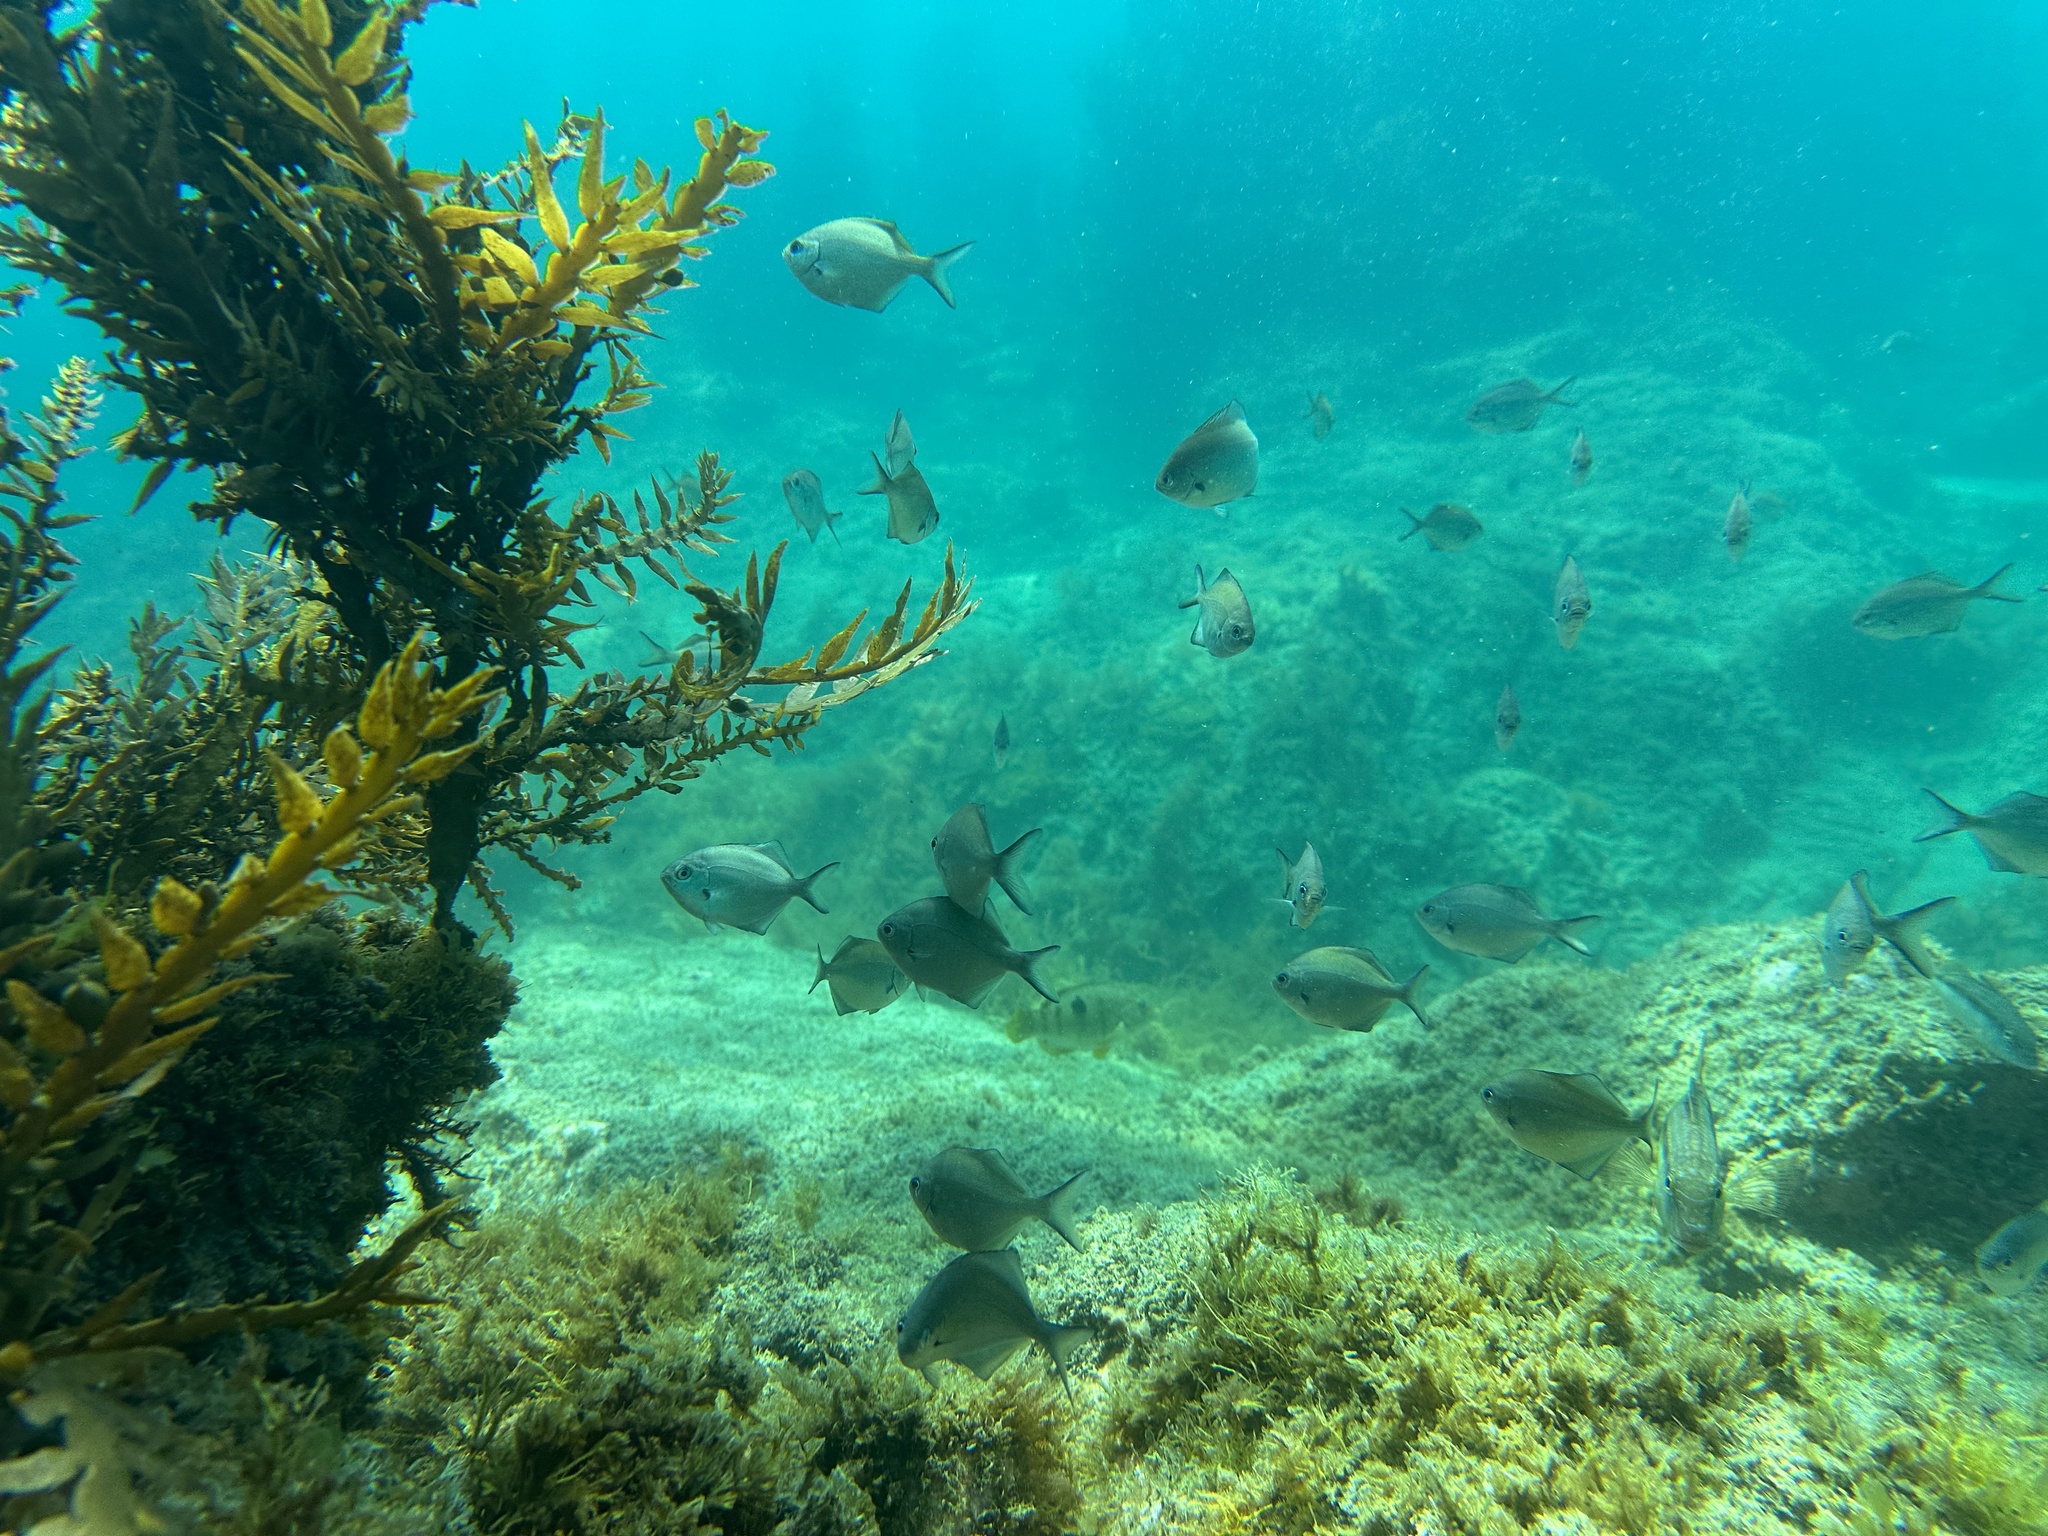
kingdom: Animalia
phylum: Chordata
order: Perciformes
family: Kyphosidae
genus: Scorpis
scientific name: Scorpis lineolata
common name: Sweep
